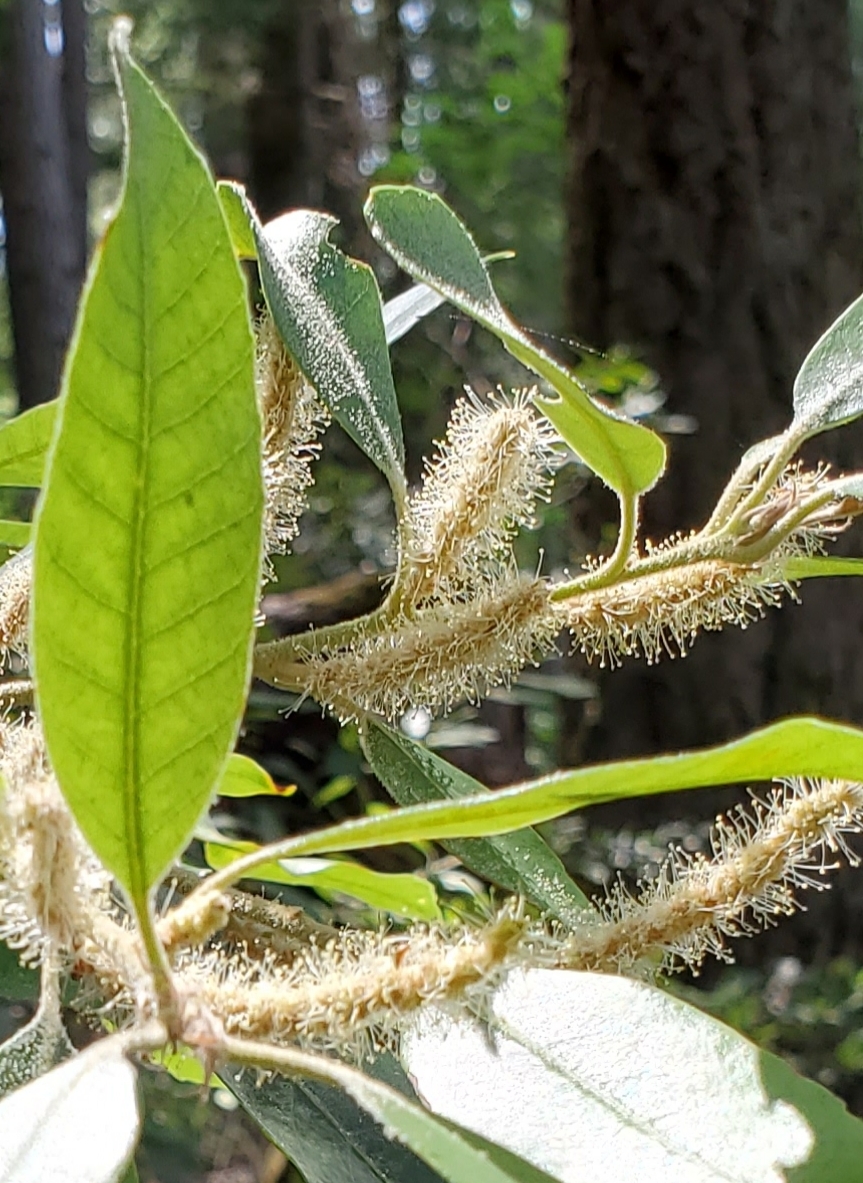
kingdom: Plantae
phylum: Tracheophyta
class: Magnoliopsida
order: Fagales
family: Fagaceae
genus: Notholithocarpus
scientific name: Notholithocarpus densiflorus
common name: Tan bark oak
